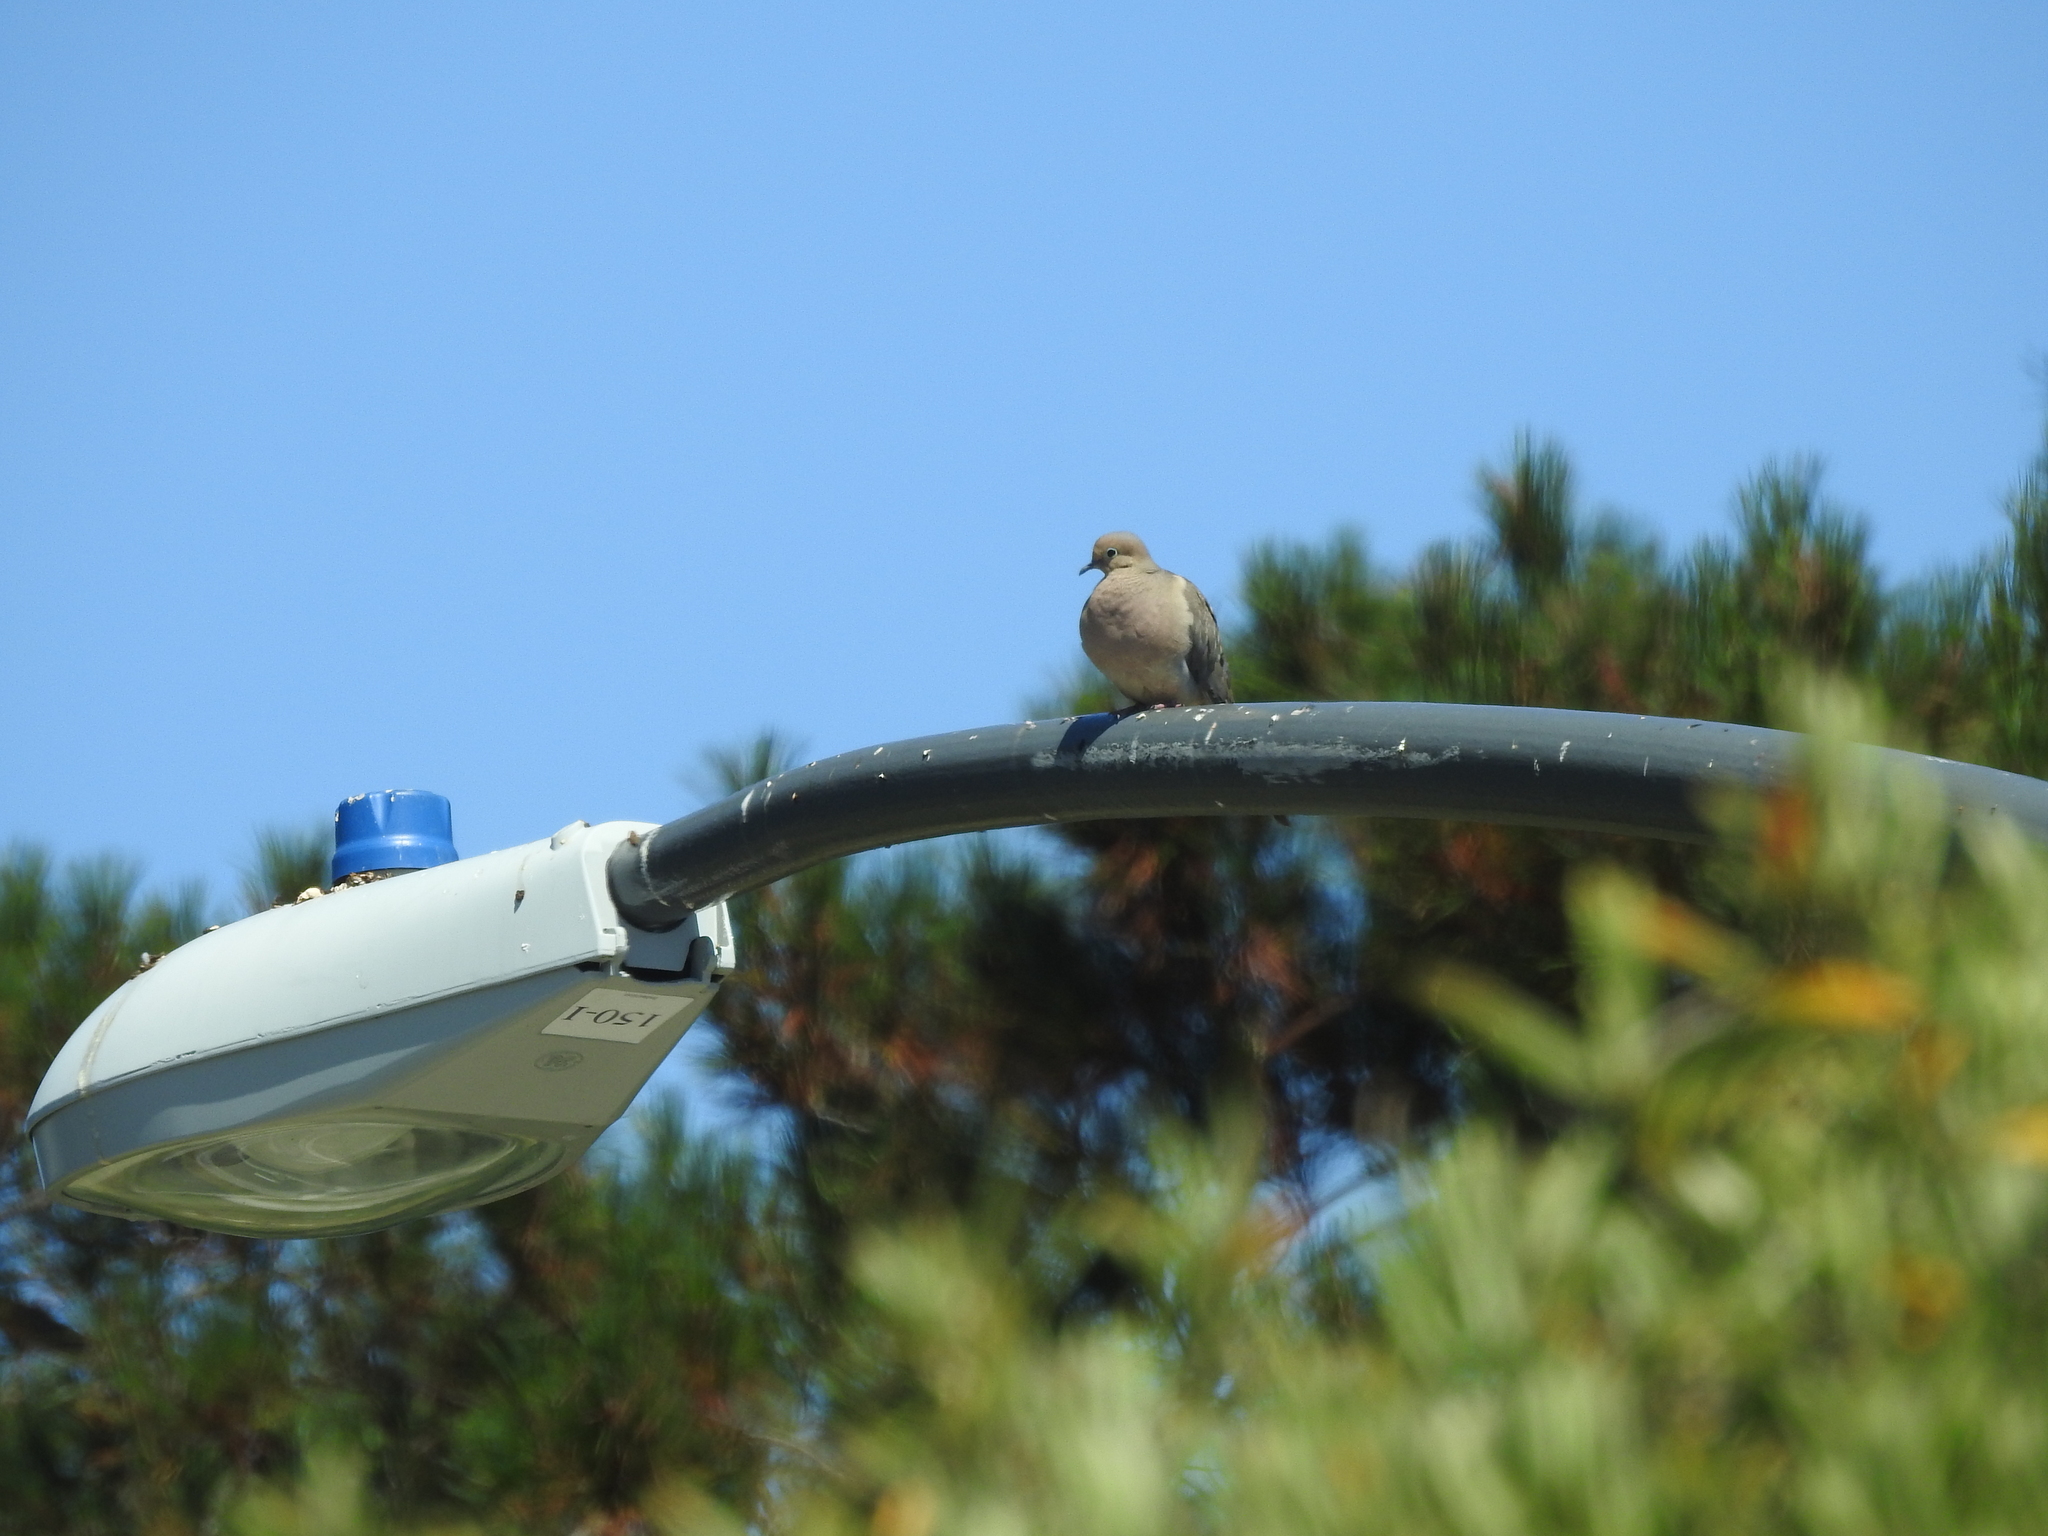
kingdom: Animalia
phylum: Chordata
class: Aves
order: Columbiformes
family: Columbidae
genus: Zenaida
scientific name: Zenaida macroura
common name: Mourning dove
